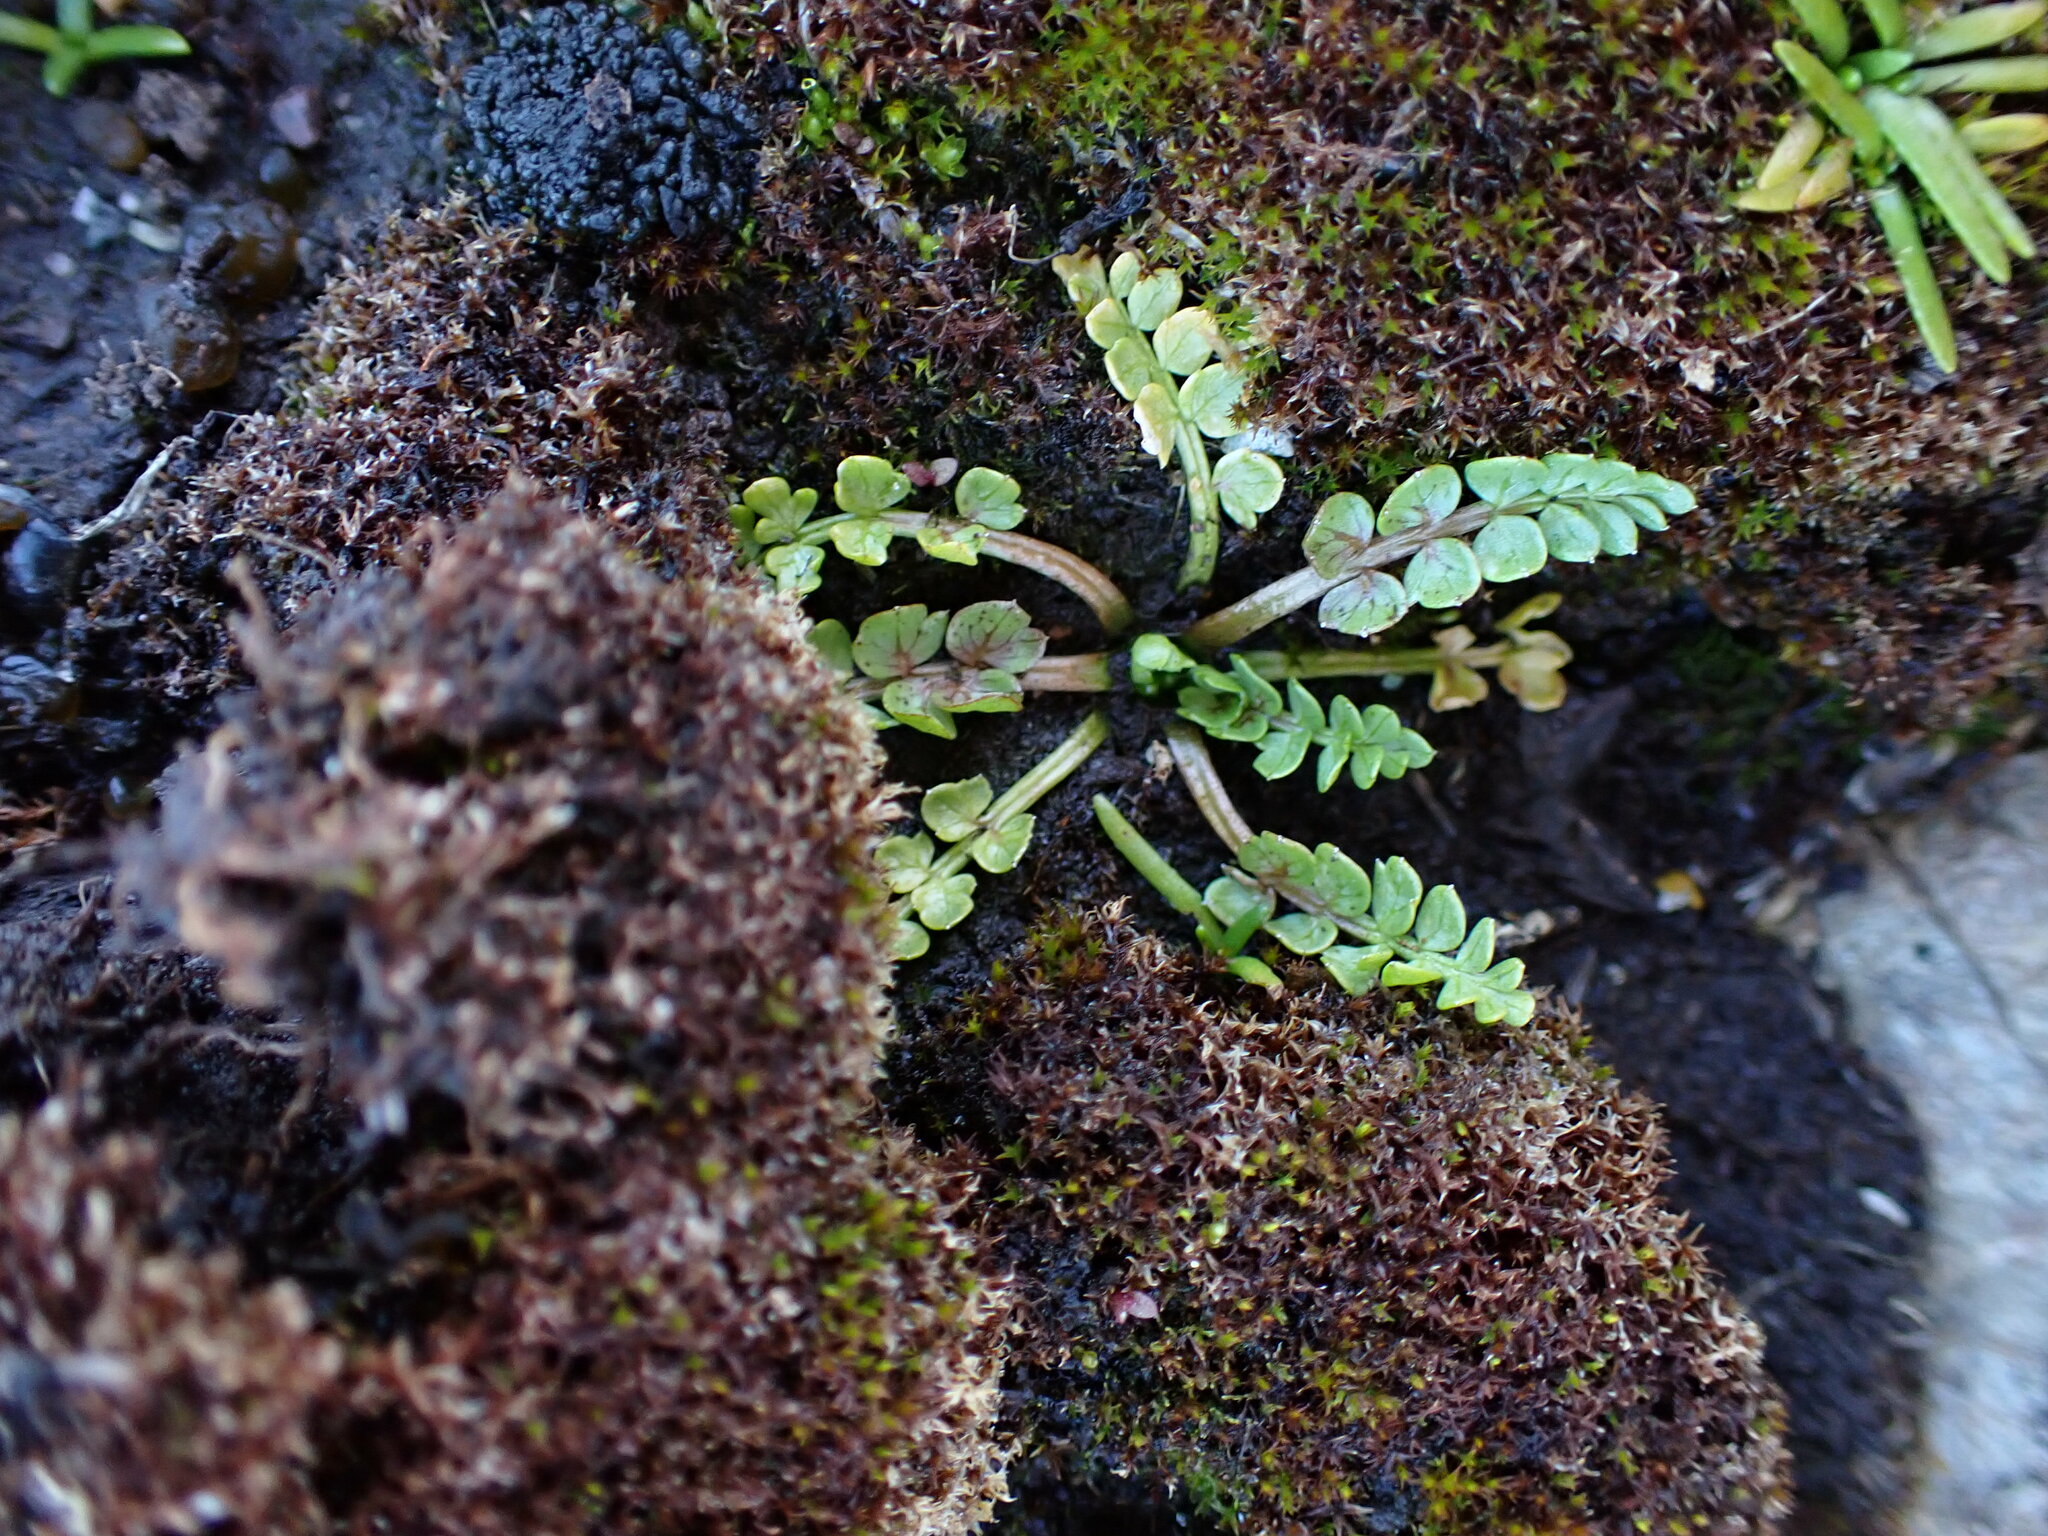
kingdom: Plantae
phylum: Tracheophyta
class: Magnoliopsida
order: Brassicales
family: Limnanthaceae
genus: Limnanthes
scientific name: Limnanthes macounii
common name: Macoun's meadowfoam
